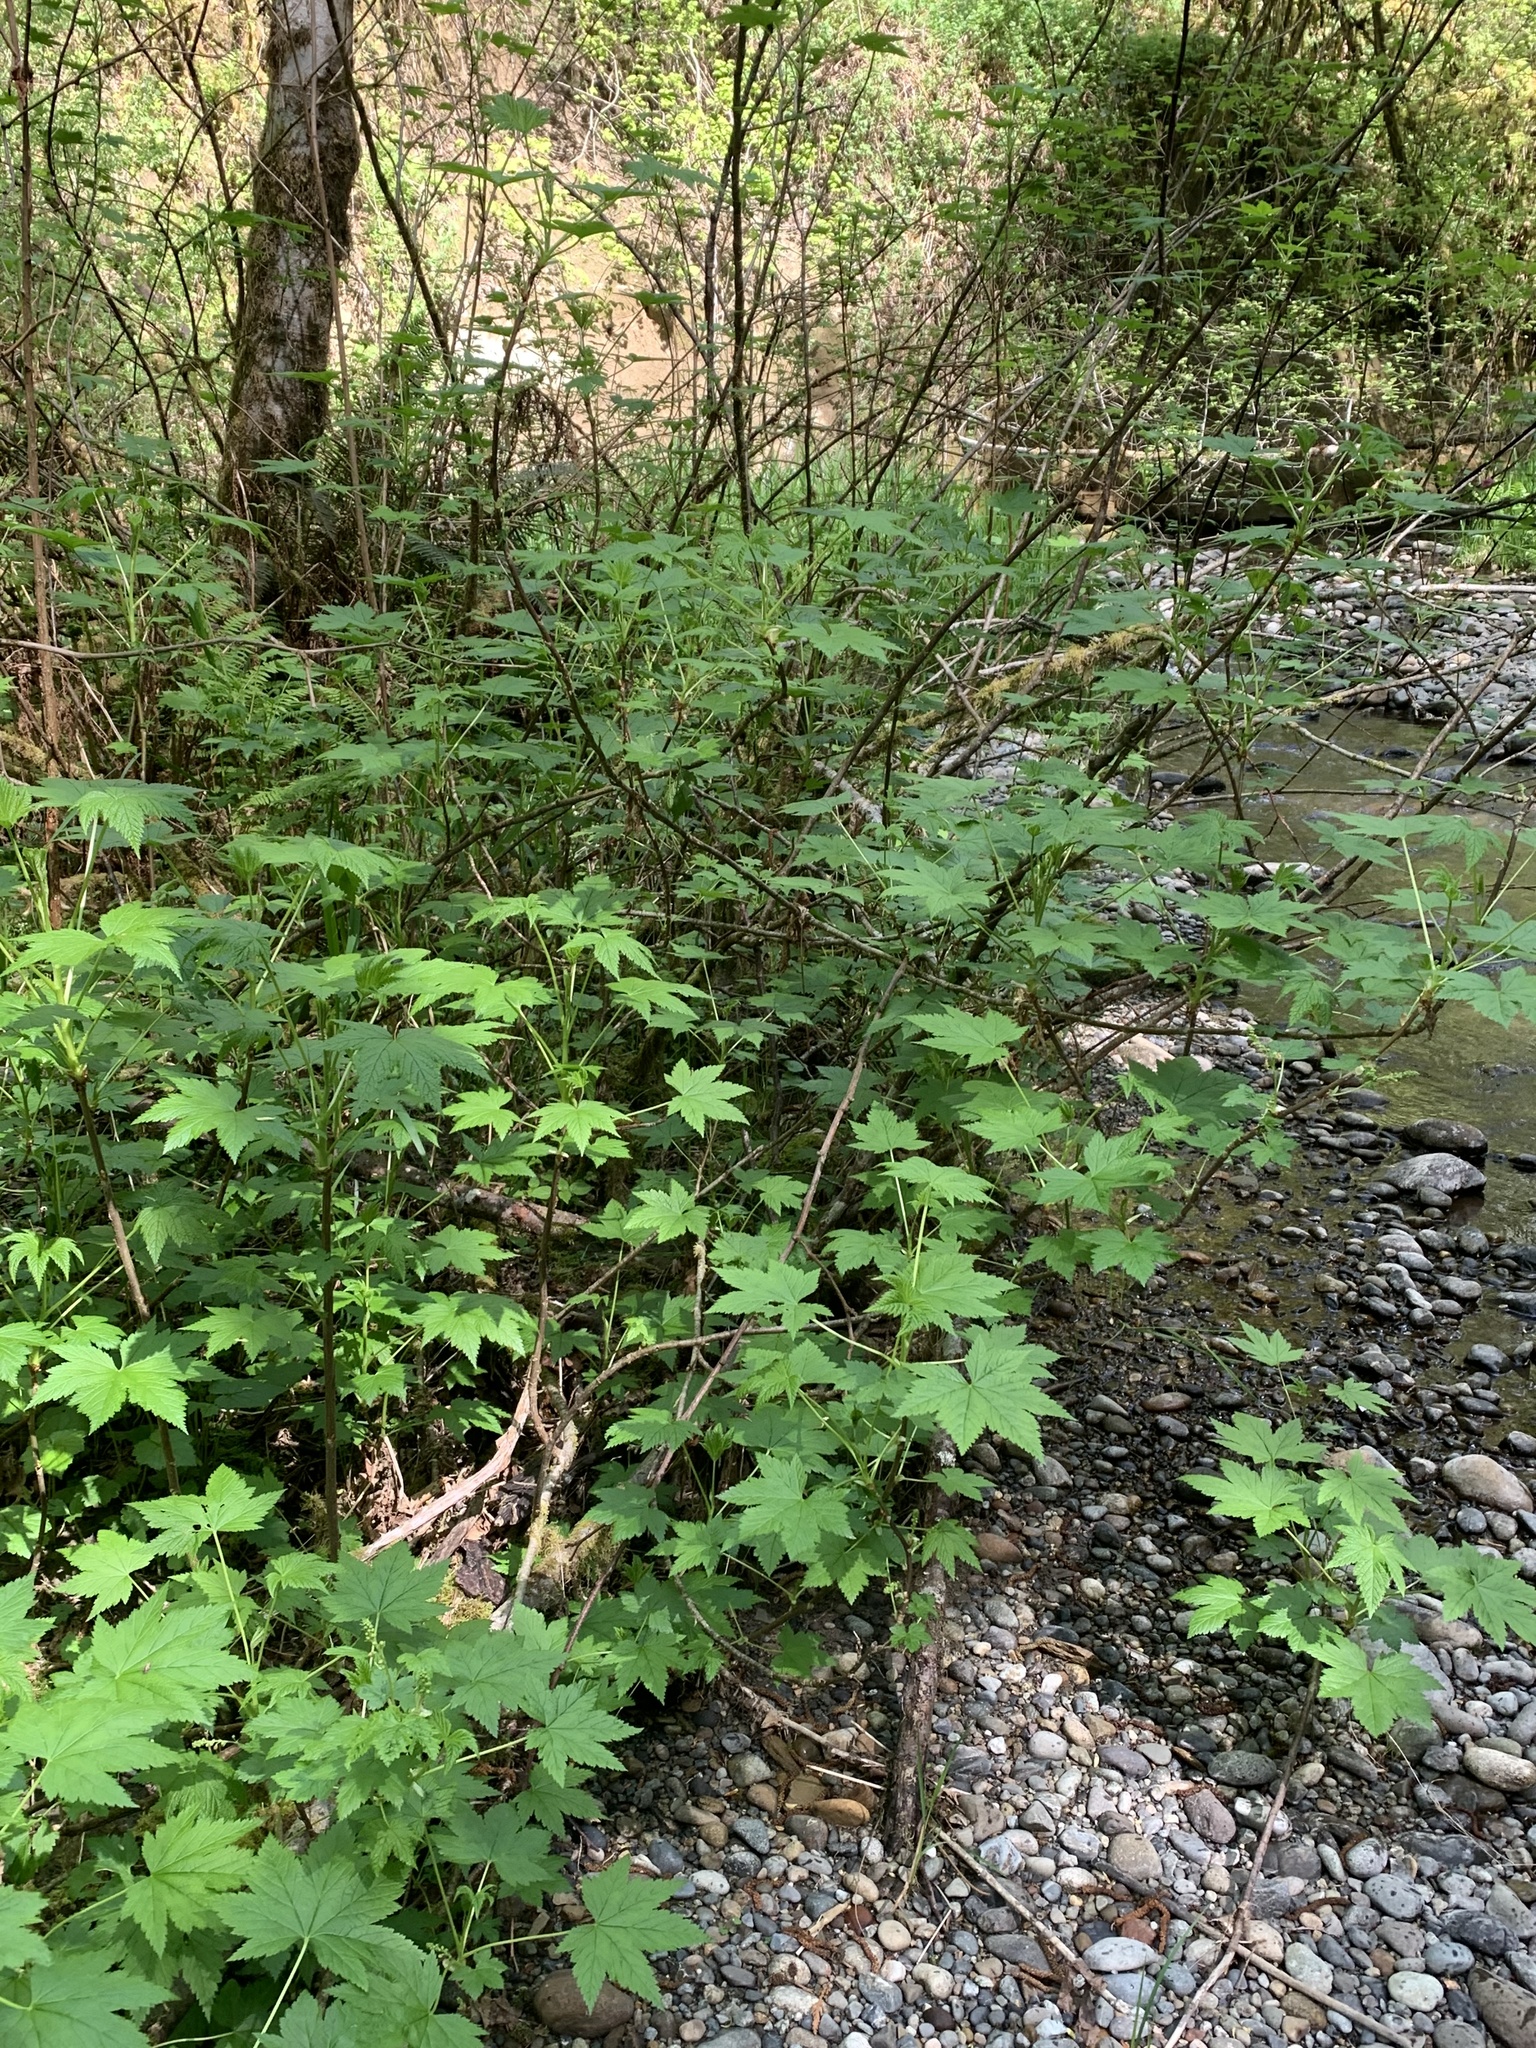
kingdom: Plantae
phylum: Tracheophyta
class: Magnoliopsida
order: Saxifragales
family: Grossulariaceae
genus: Ribes
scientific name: Ribes bracteosum
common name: California black currant
